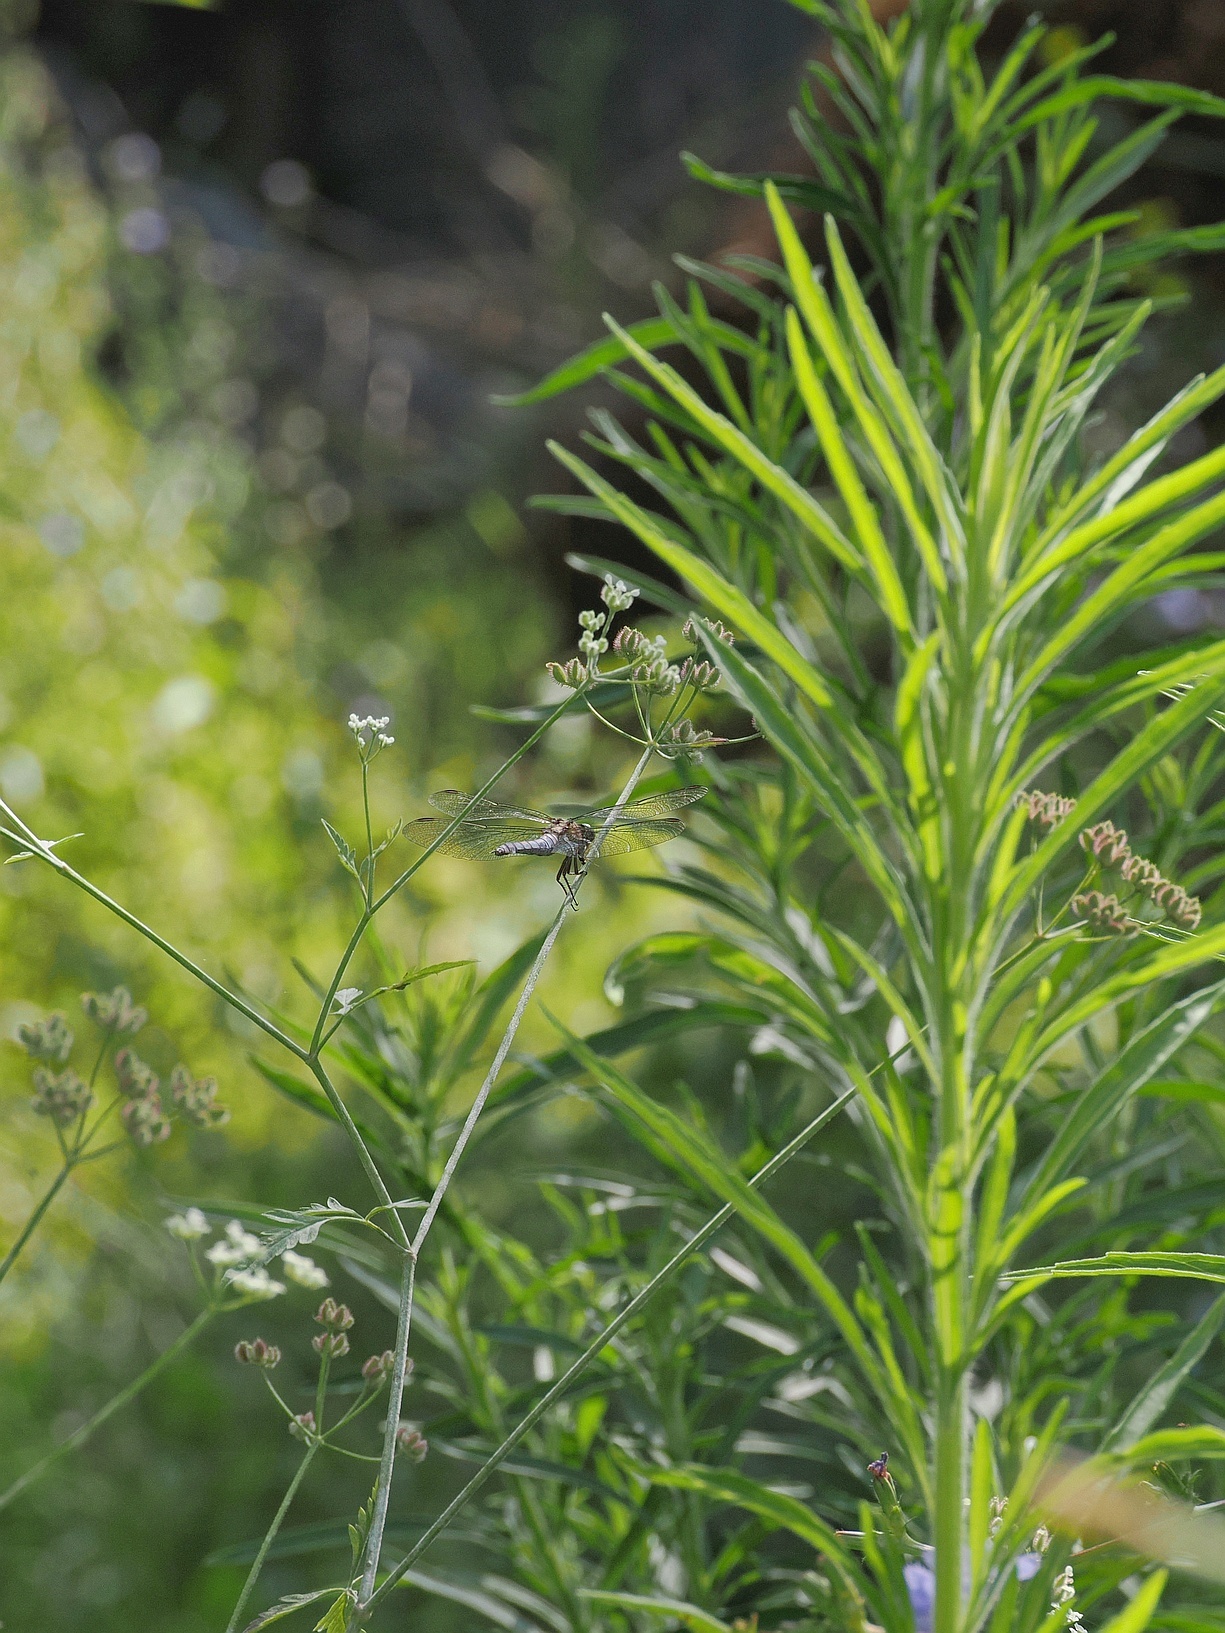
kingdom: Animalia
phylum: Arthropoda
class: Insecta
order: Odonata
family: Libellulidae
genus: Orthetrum
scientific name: Orthetrum coerulescens
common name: Keeled skimmer
